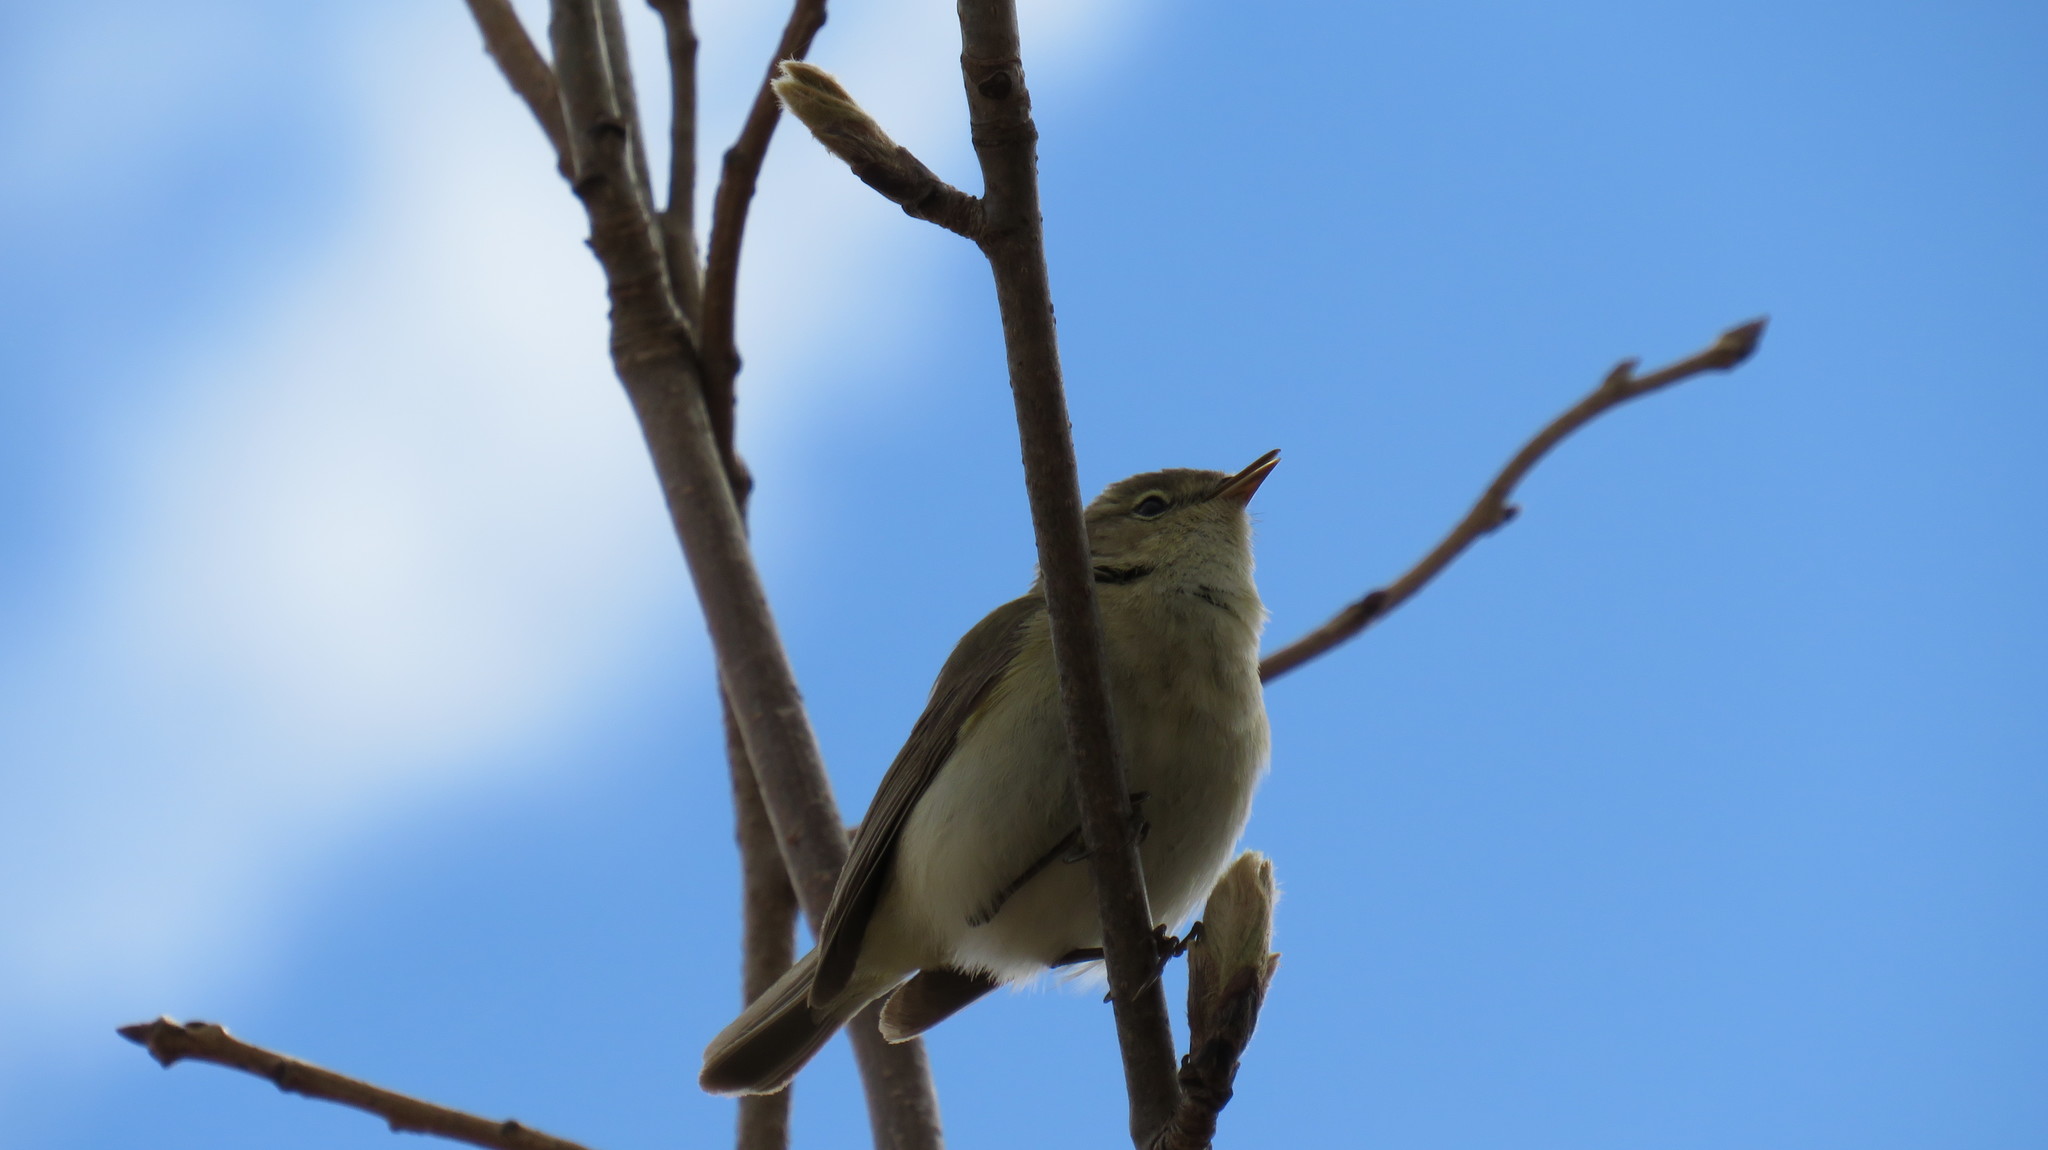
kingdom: Animalia
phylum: Chordata
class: Aves
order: Passeriformes
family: Phylloscopidae
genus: Phylloscopus
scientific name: Phylloscopus collybita
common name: Common chiffchaff
